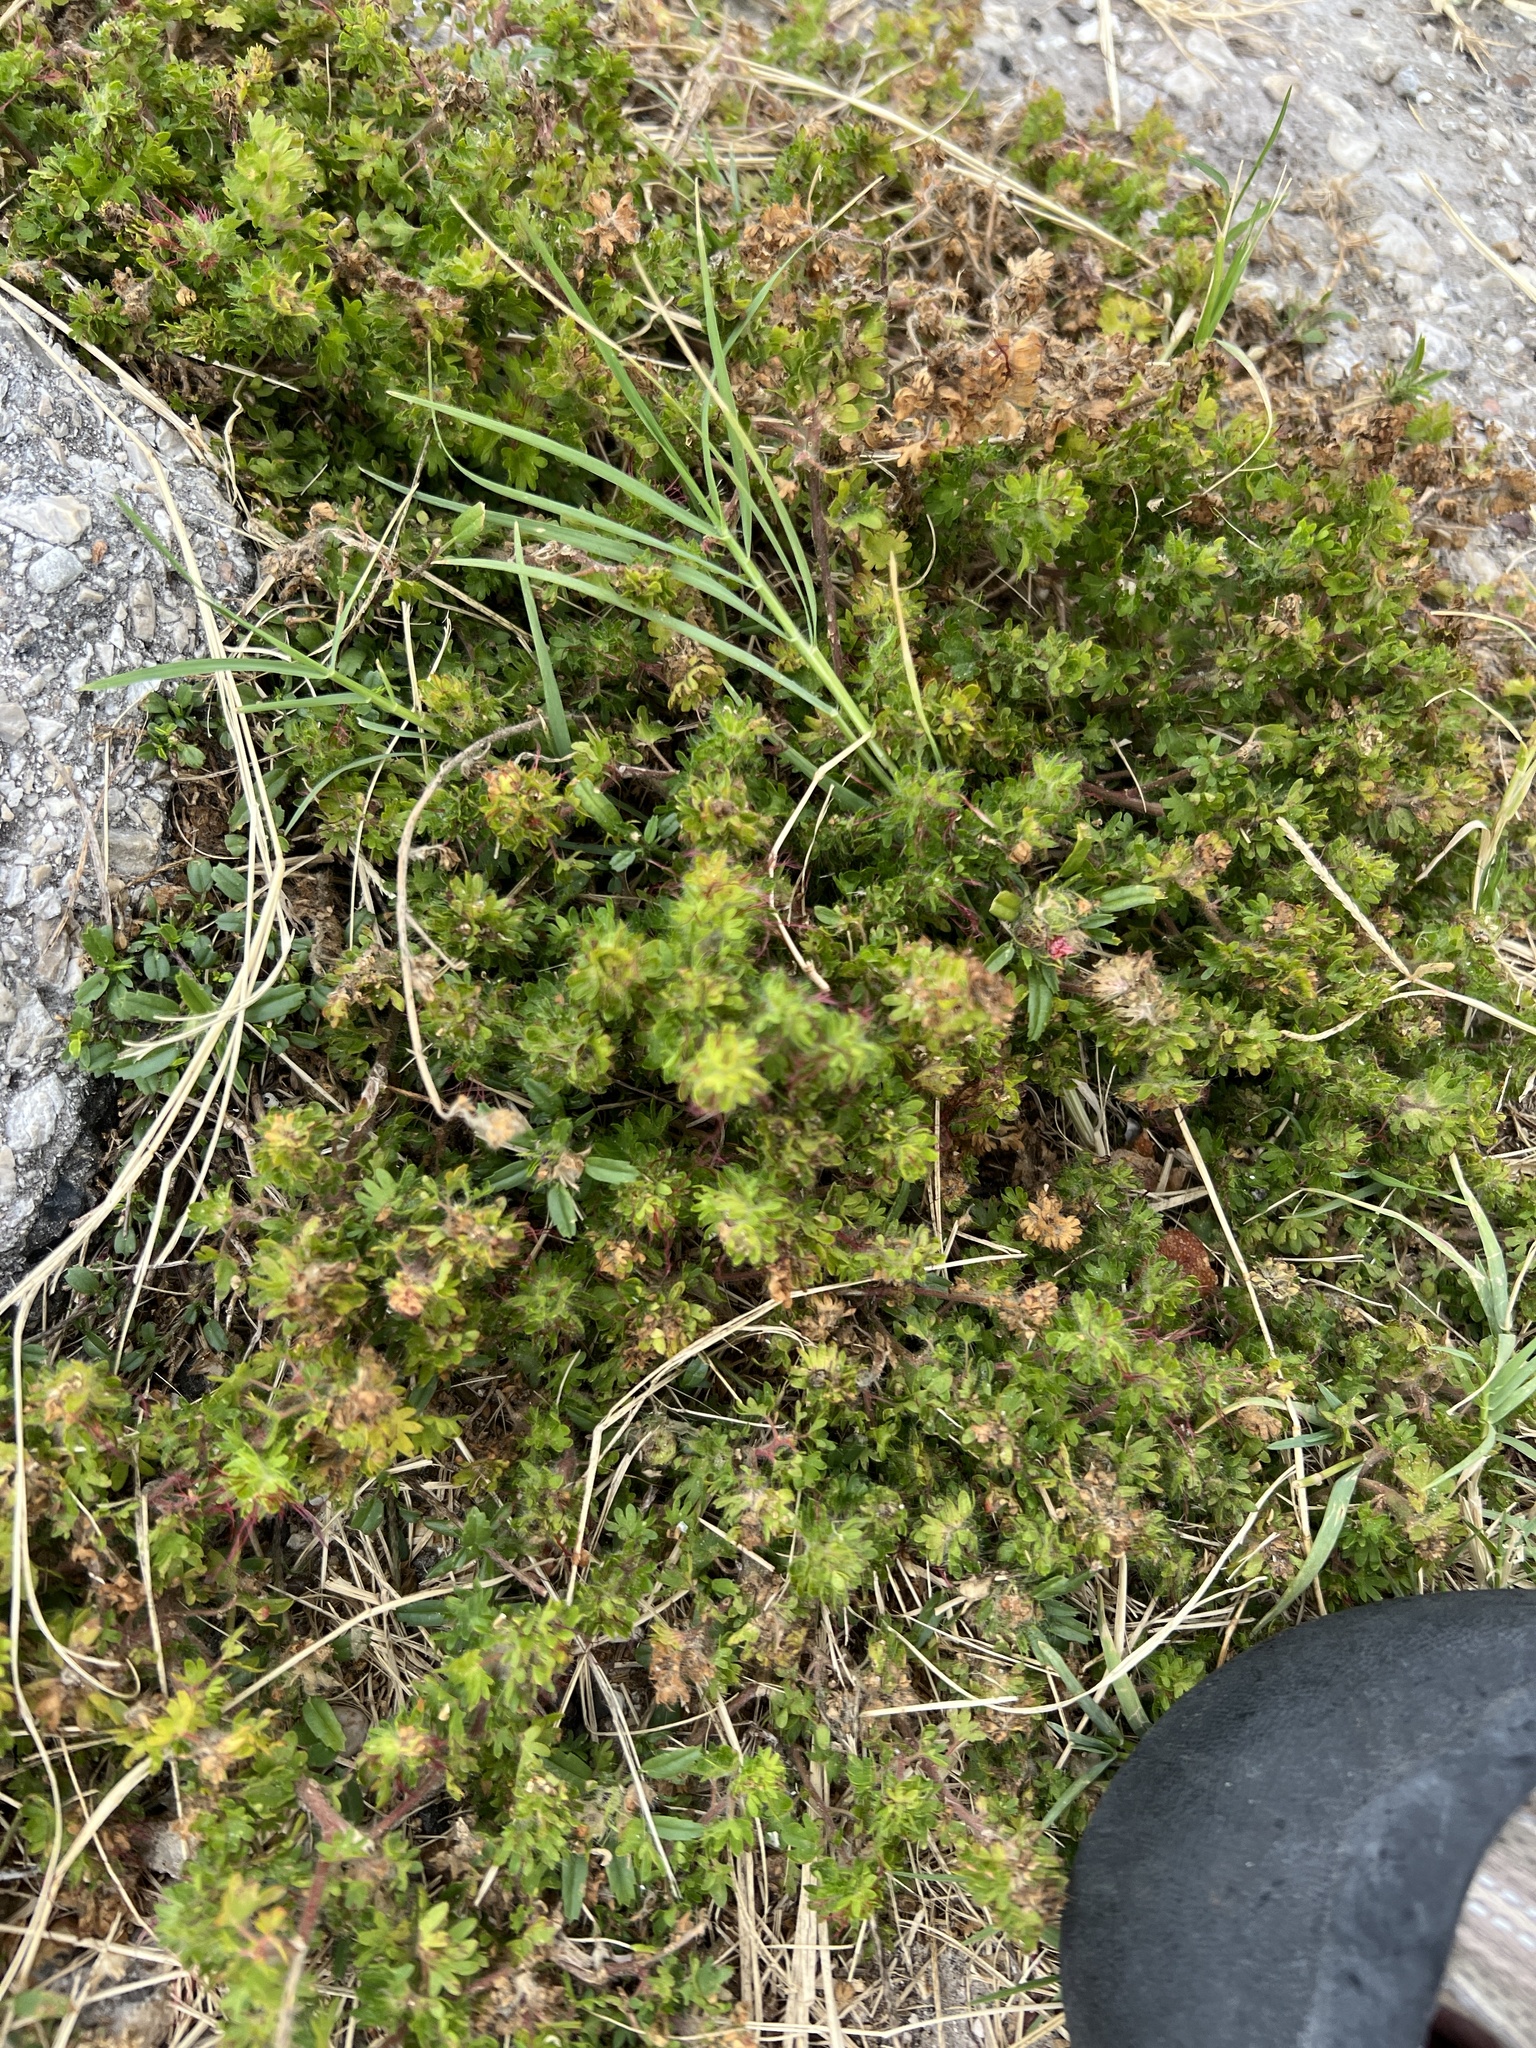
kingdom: Plantae
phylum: Tracheophyta
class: Magnoliopsida
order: Malpighiales
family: Euphorbiaceae
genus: Acalypha
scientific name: Acalypha radians
